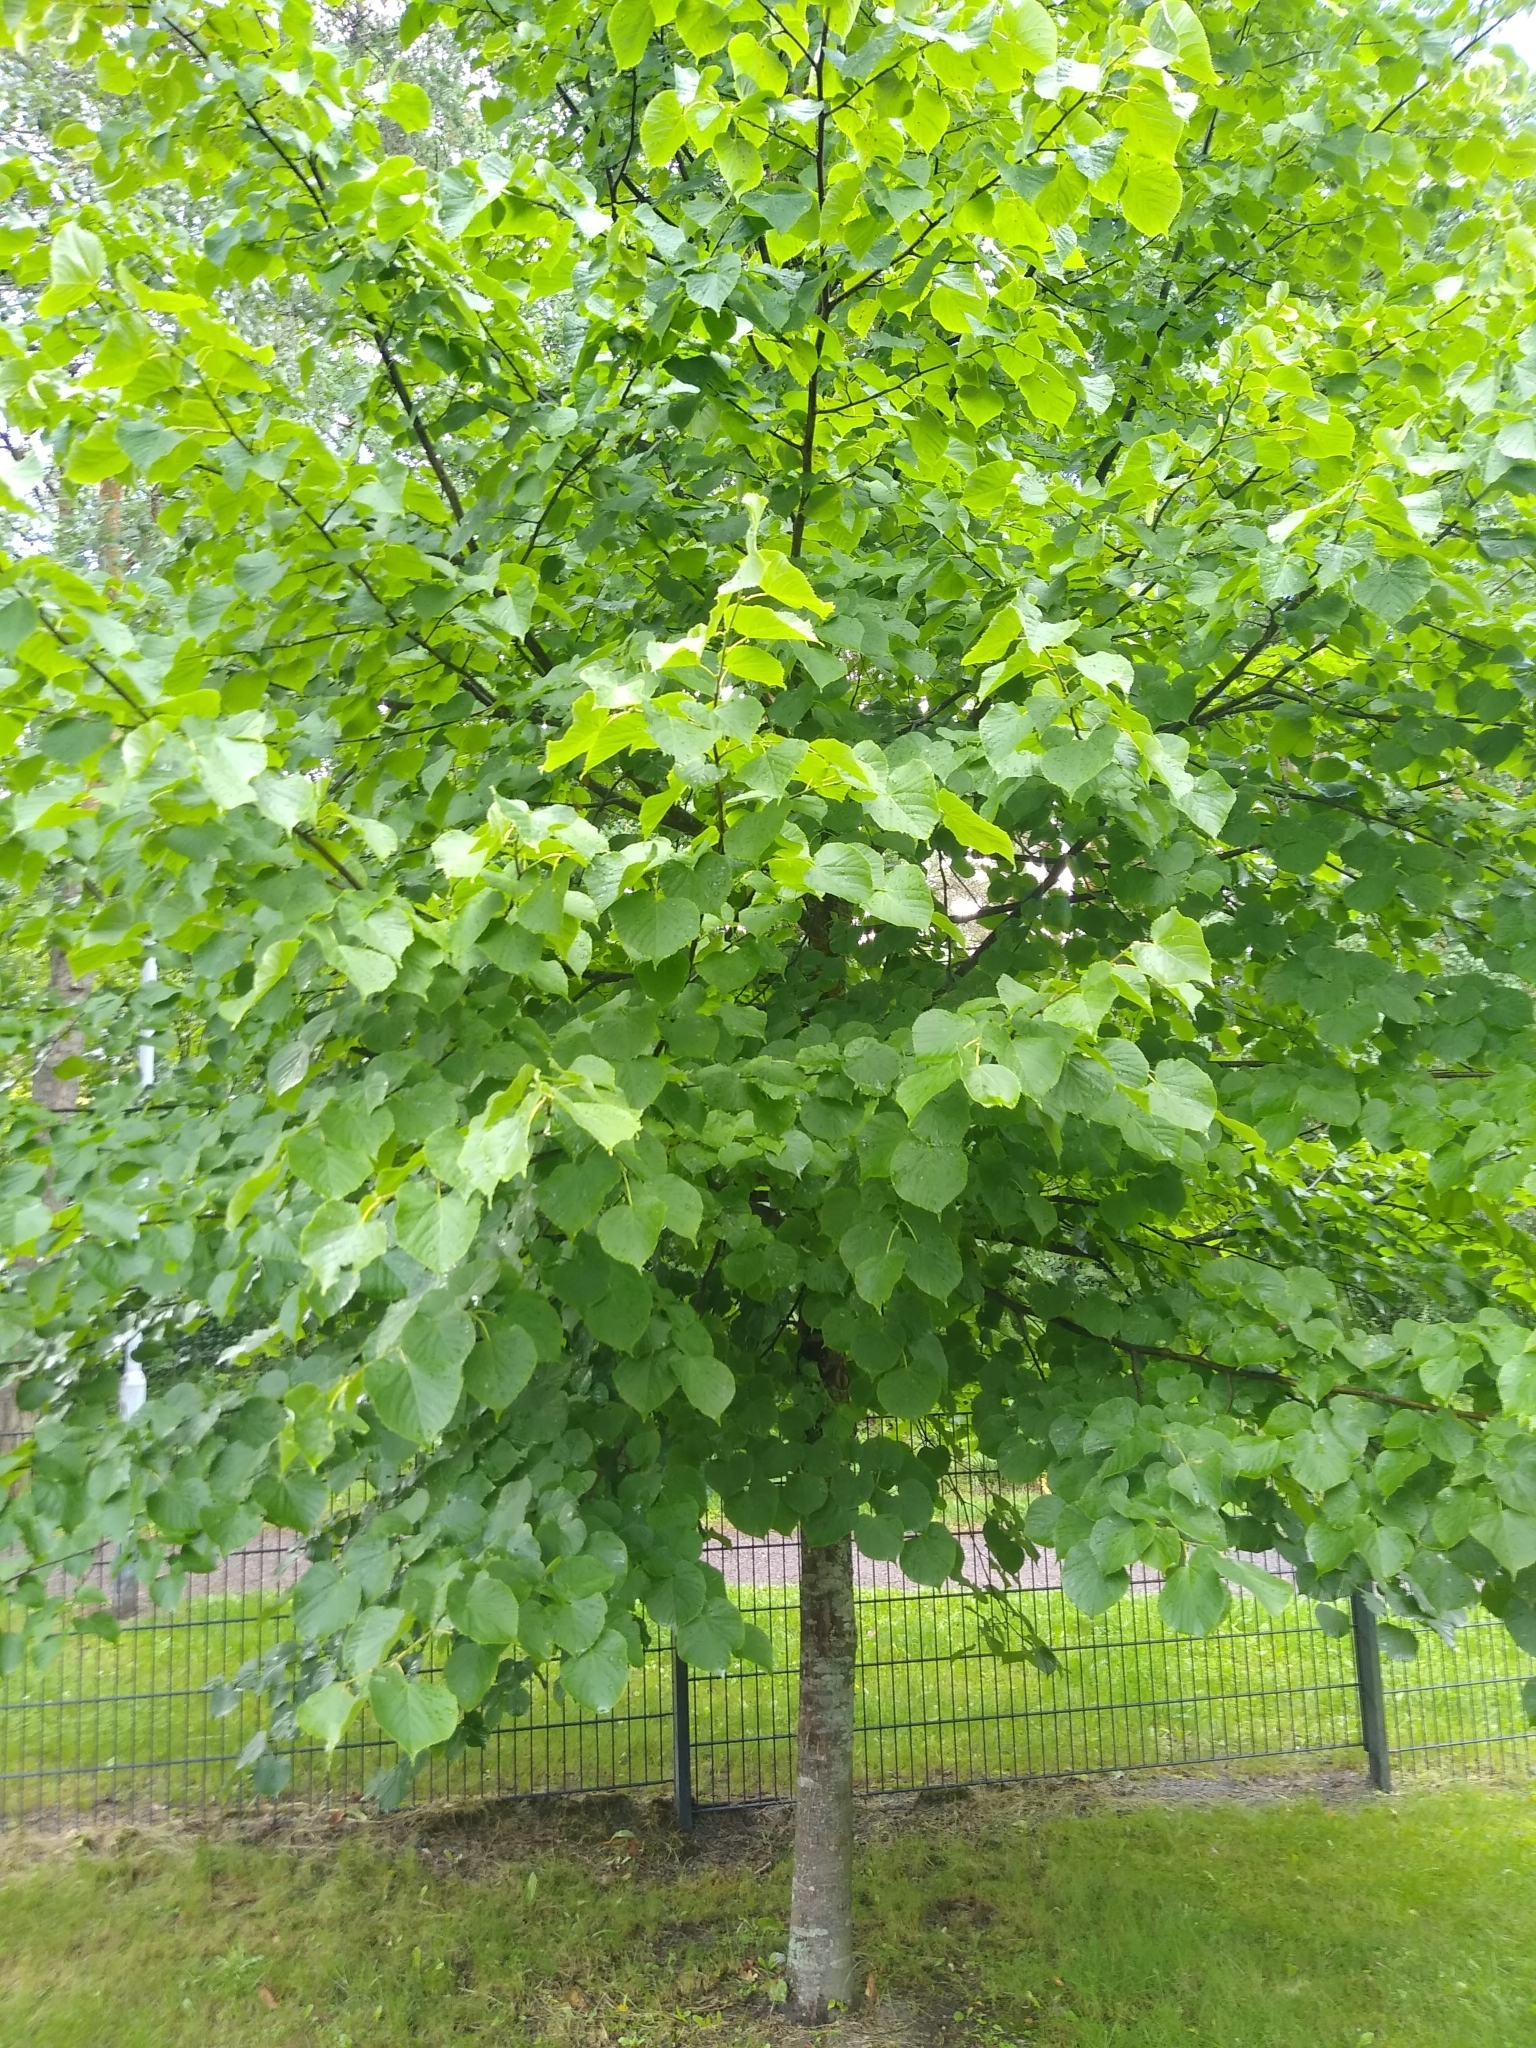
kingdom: Plantae
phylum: Tracheophyta
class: Magnoliopsida
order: Malvales
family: Malvaceae
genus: Tilia
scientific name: Tilia cordata
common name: Small-leaved lime
